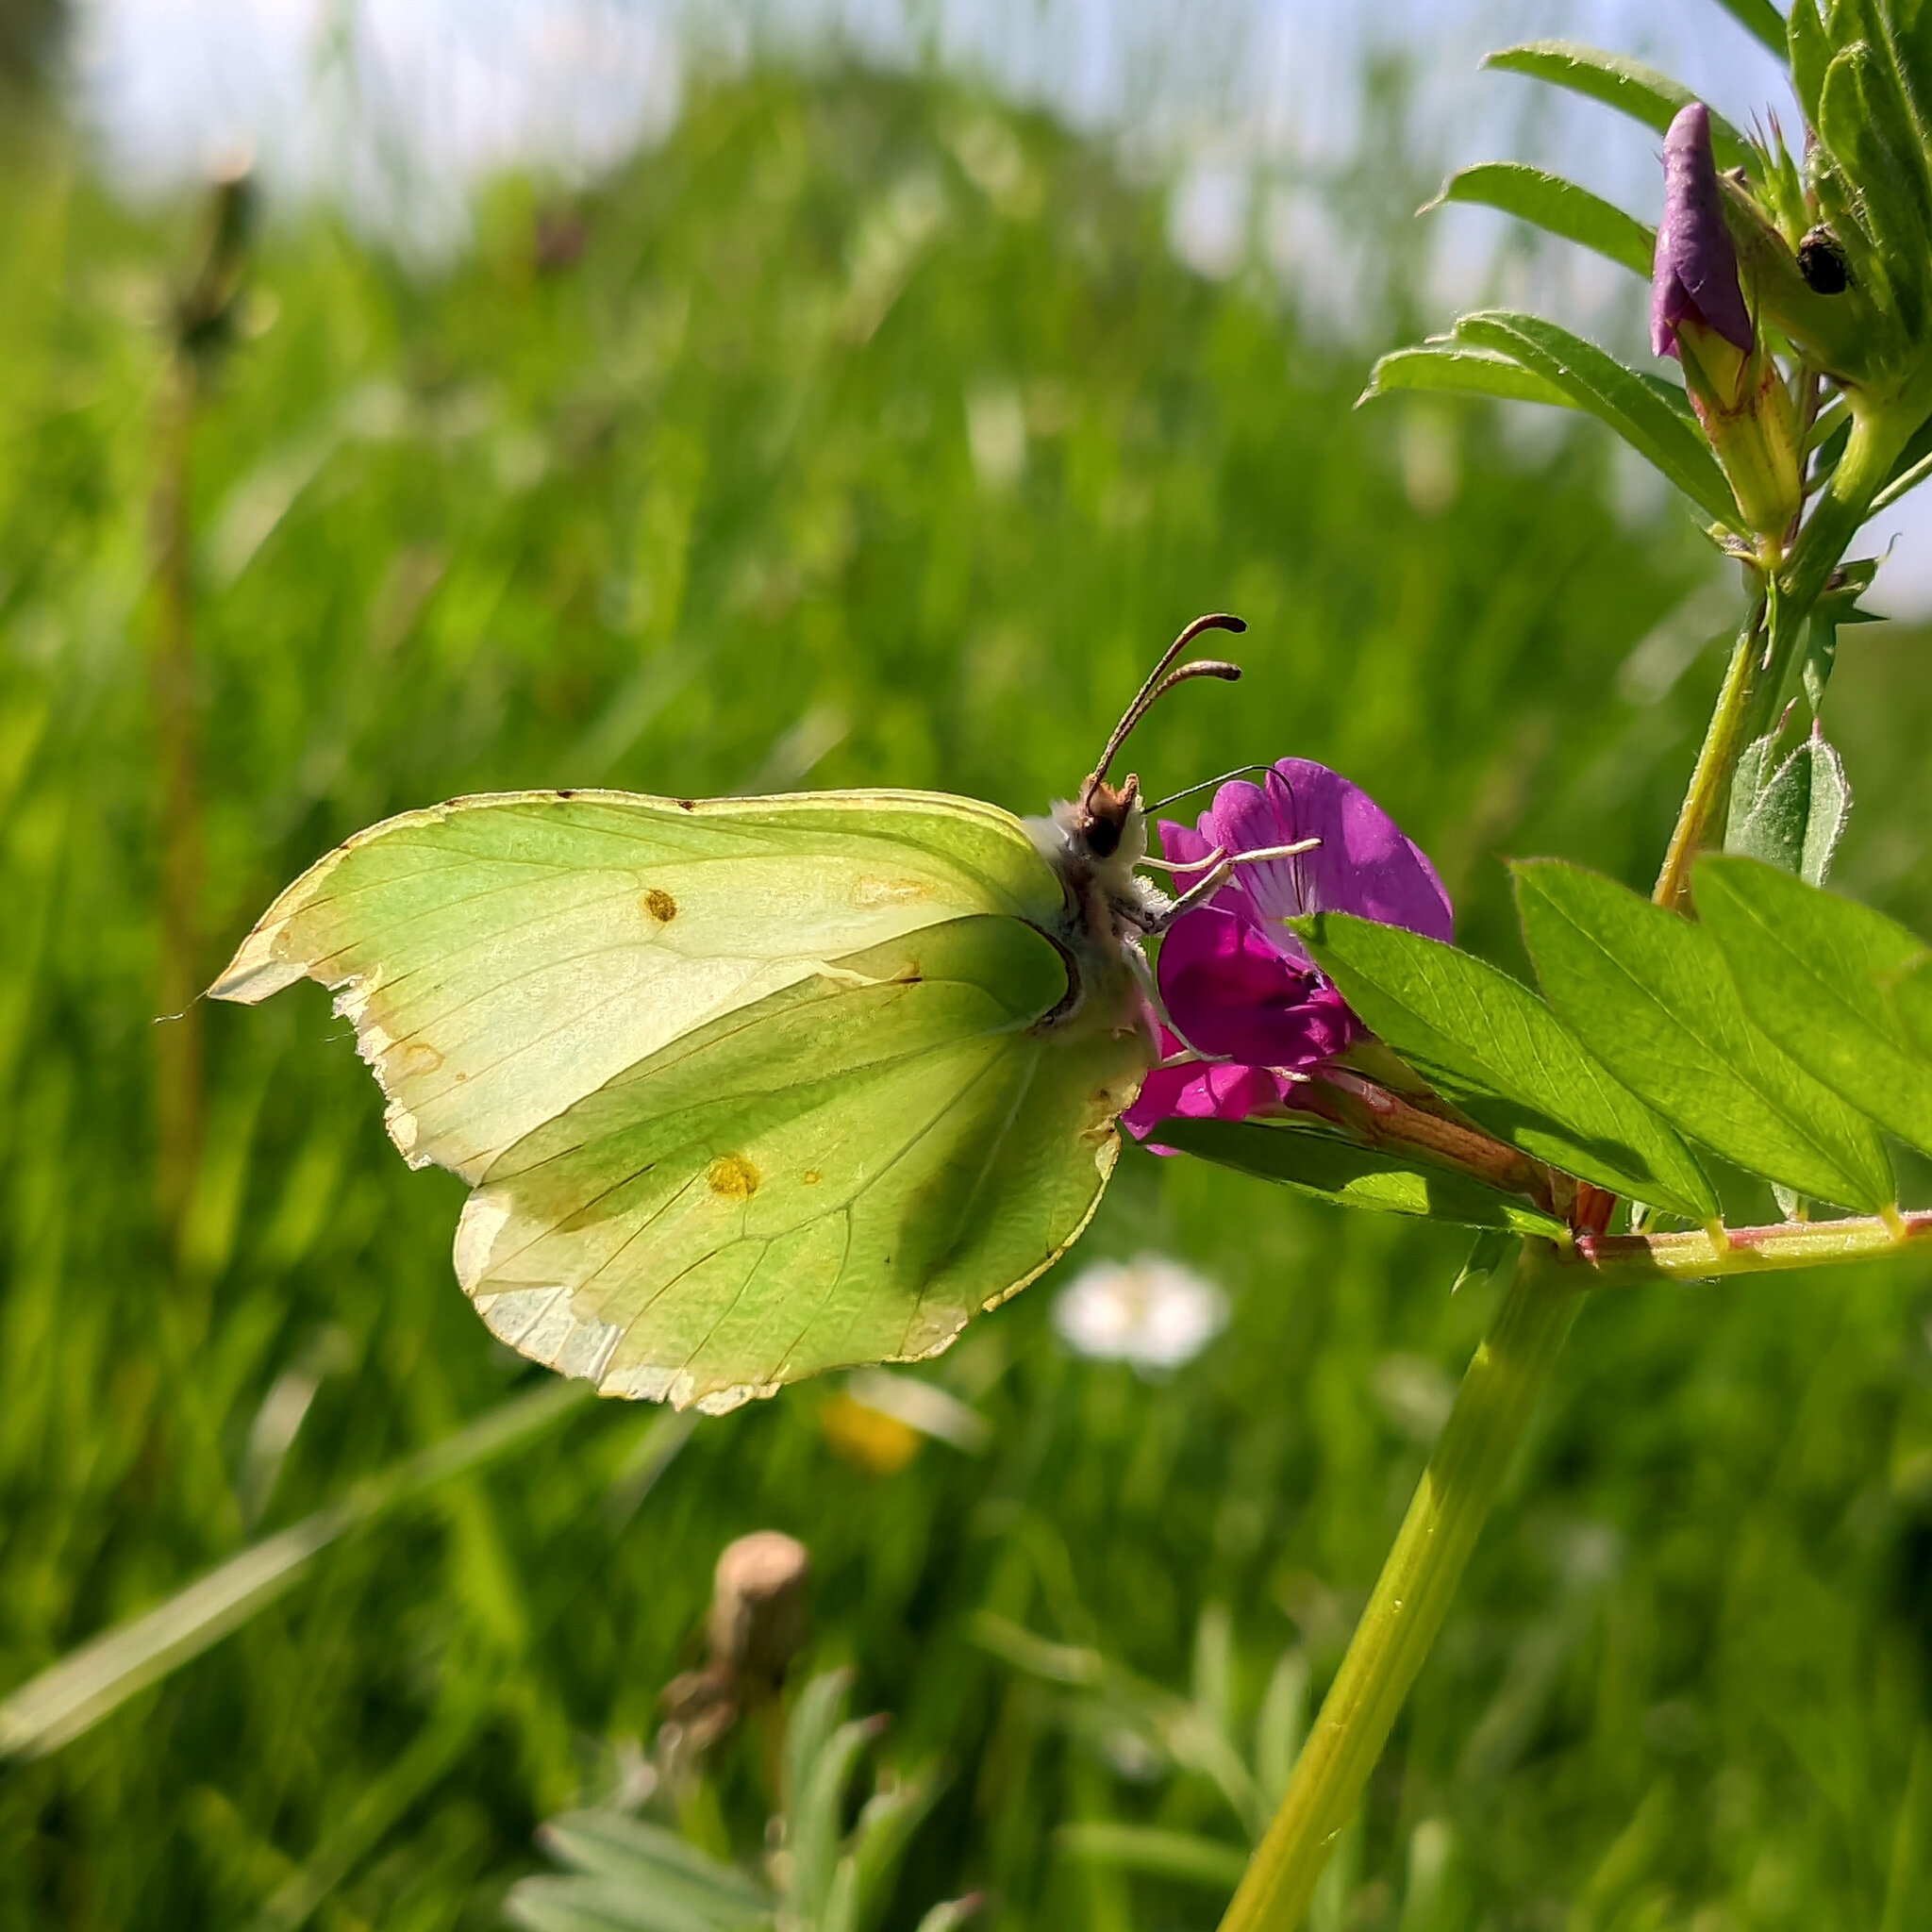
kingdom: Animalia
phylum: Arthropoda
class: Insecta
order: Lepidoptera
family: Pieridae
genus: Gonepteryx
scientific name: Gonepteryx rhamni
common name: Brimstone
